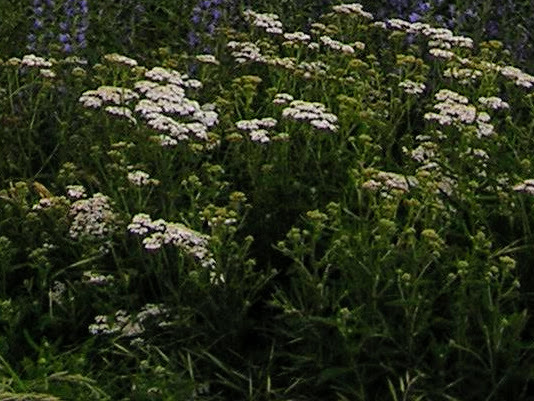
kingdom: Plantae
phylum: Tracheophyta
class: Magnoliopsida
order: Asterales
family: Asteraceae
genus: Achillea
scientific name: Achillea millefolium
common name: Yarrow
